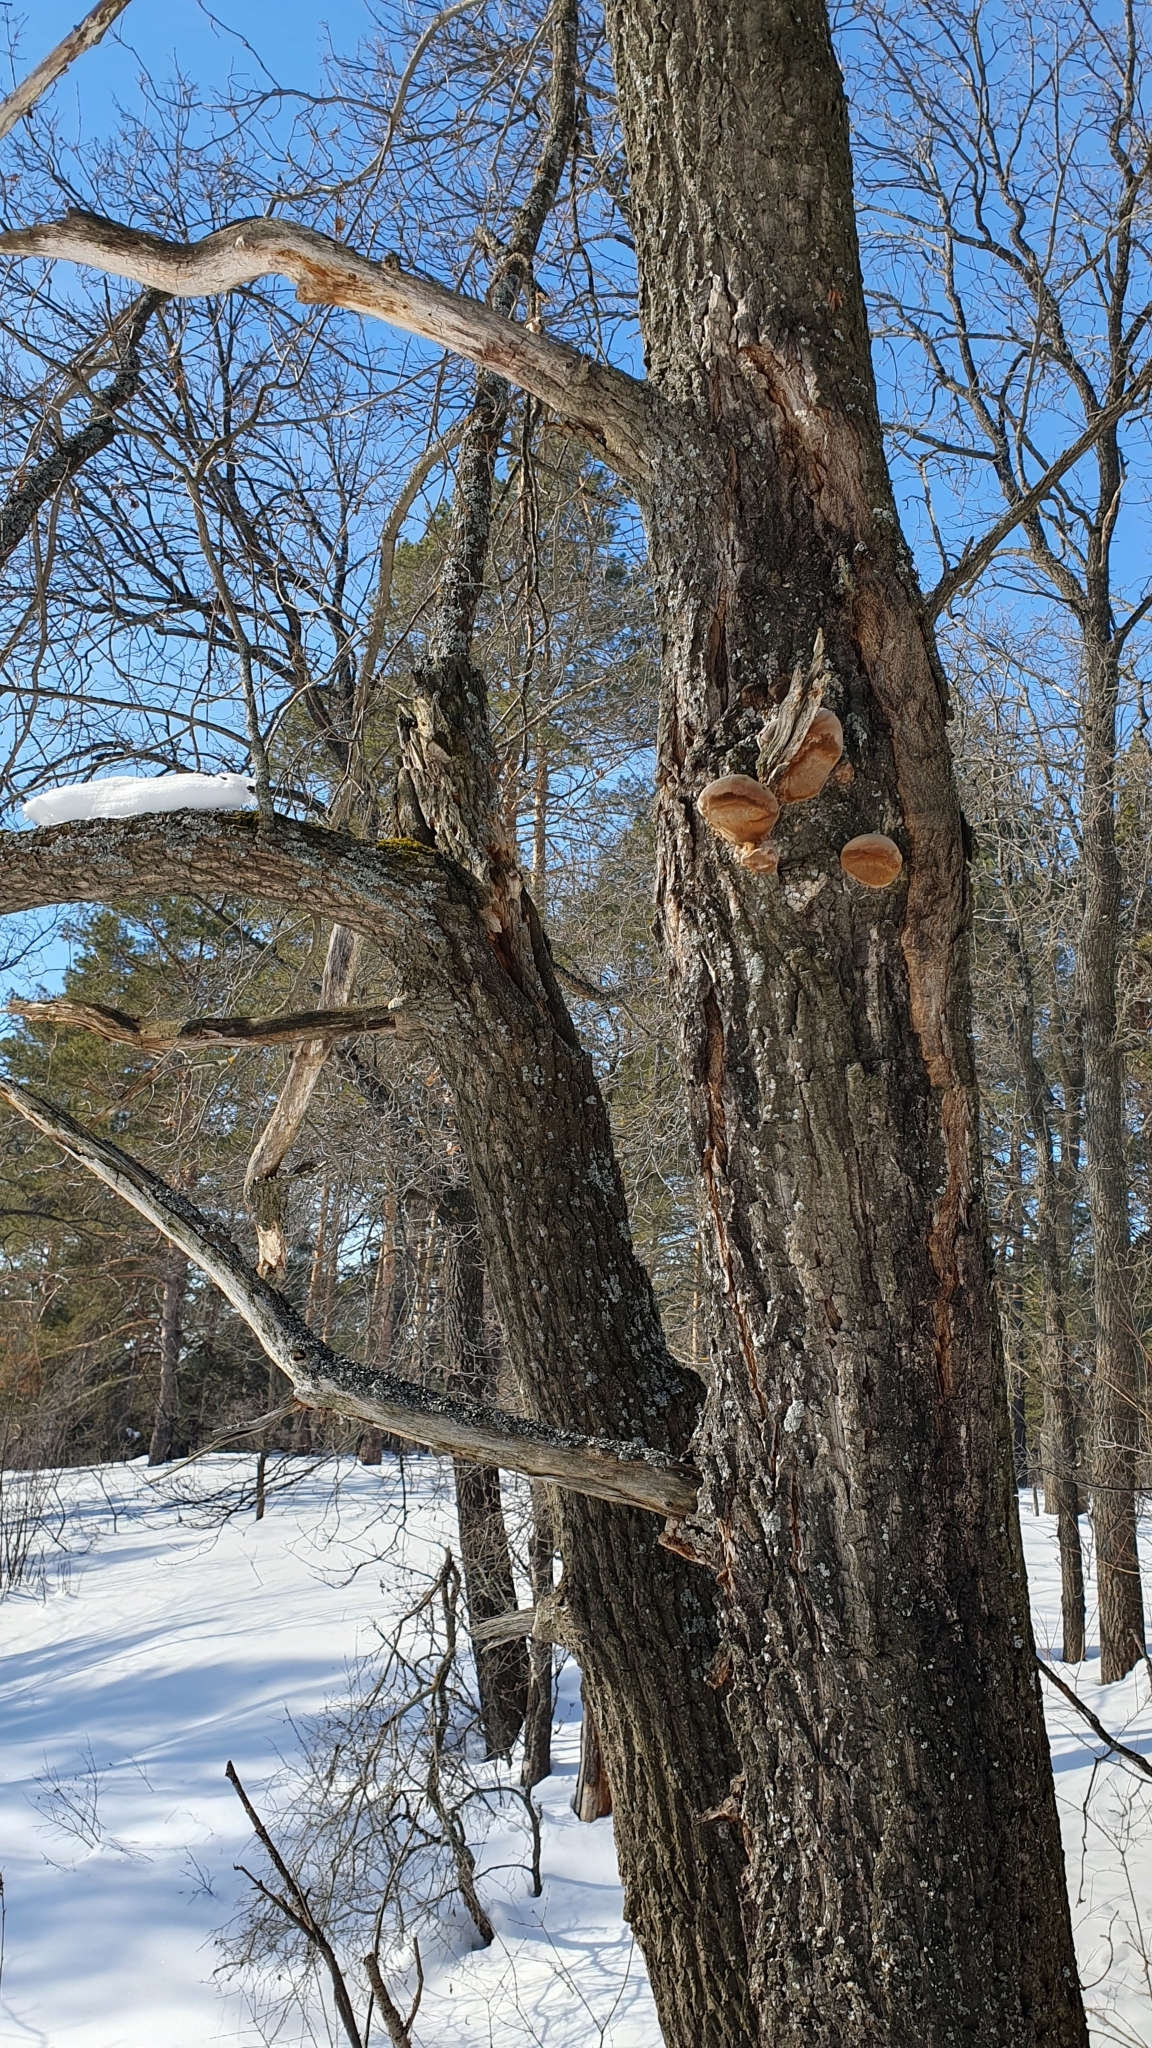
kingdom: Plantae
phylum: Tracheophyta
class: Magnoliopsida
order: Fagales
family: Fagaceae
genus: Quercus
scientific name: Quercus robur
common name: Pedunculate oak
